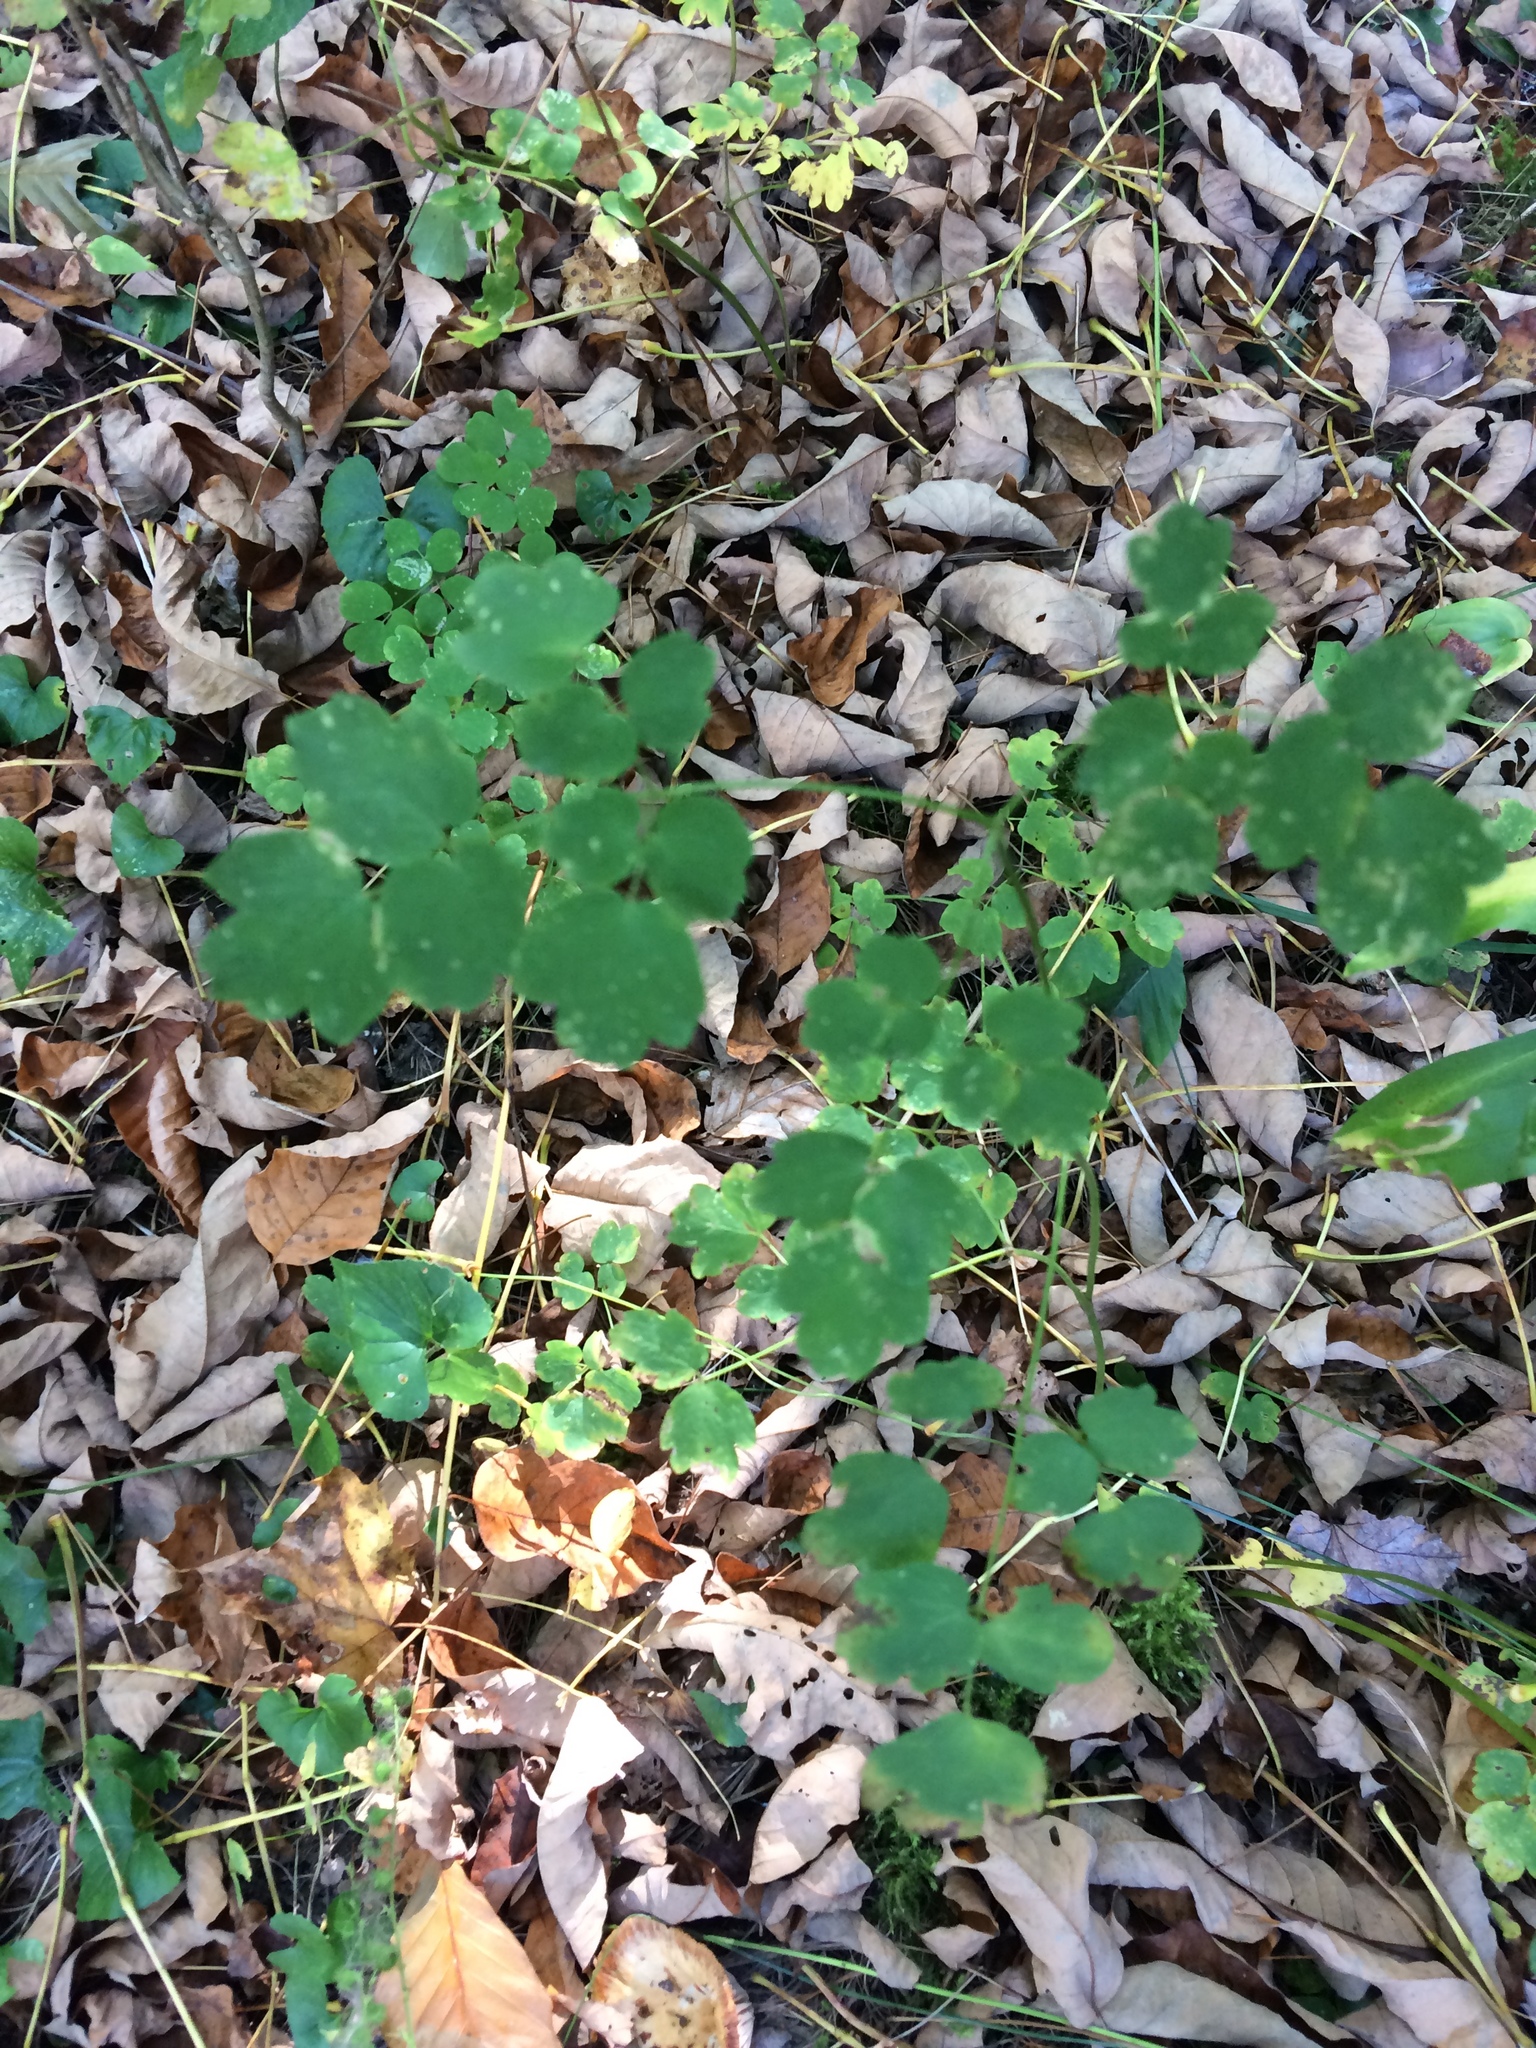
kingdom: Plantae
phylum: Tracheophyta
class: Magnoliopsida
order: Ranunculales
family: Ranunculaceae
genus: Thalictrum
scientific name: Thalictrum pubescens
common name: King-of-the-meadow
